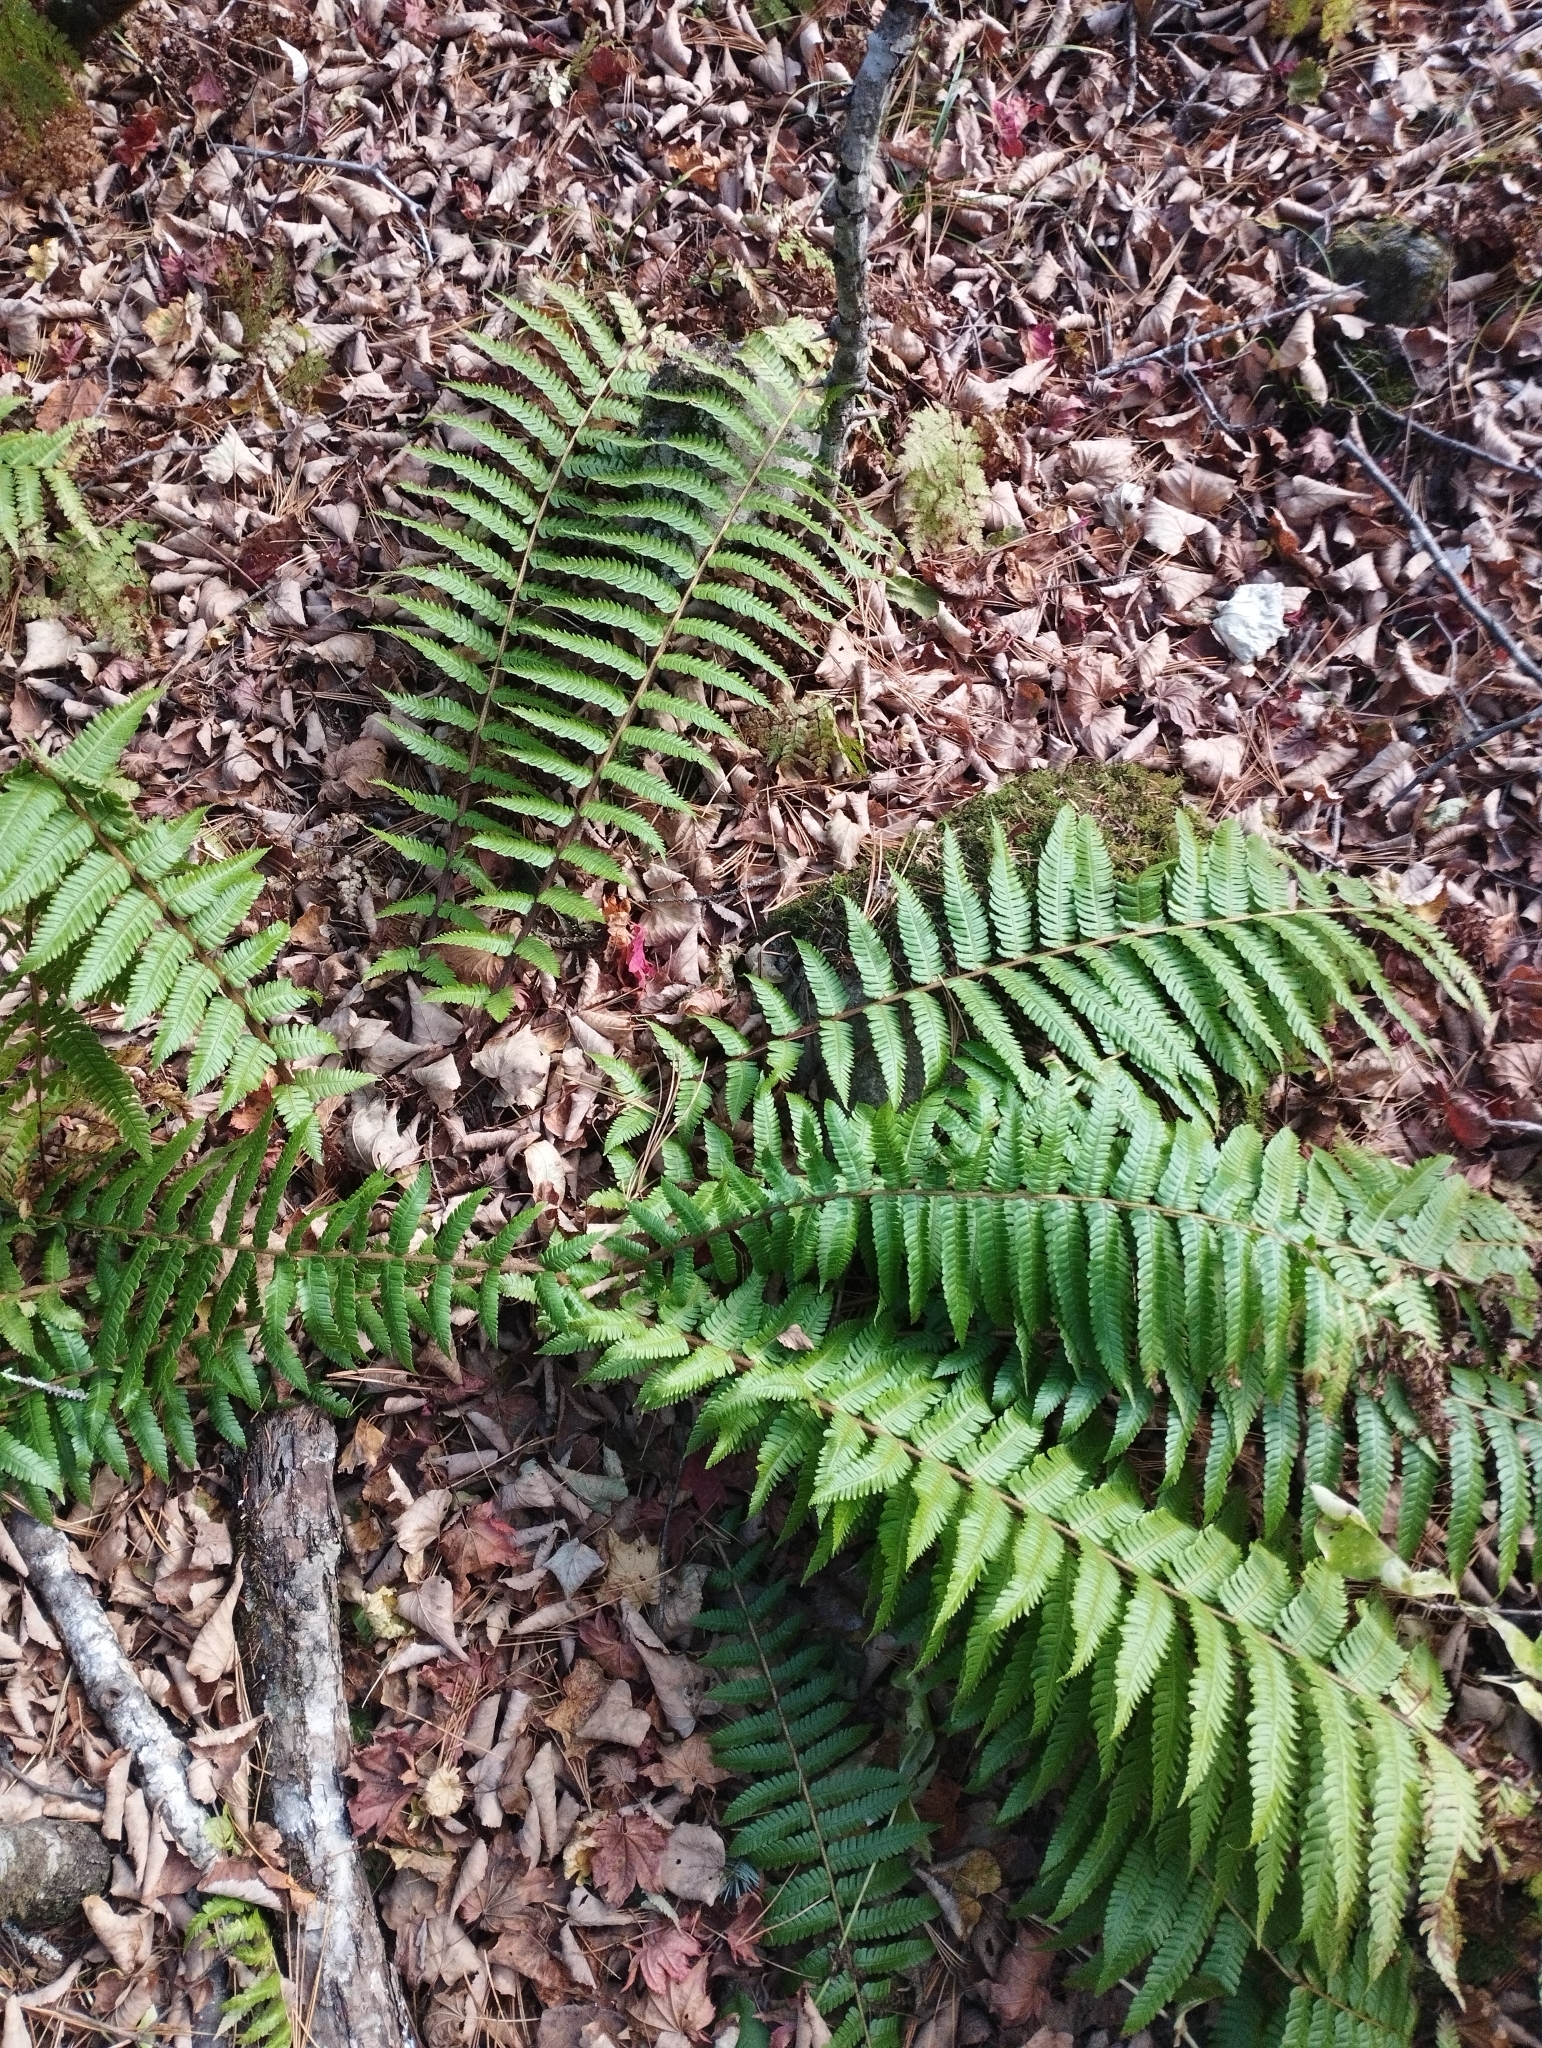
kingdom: Plantae
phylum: Tracheophyta
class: Polypodiopsida
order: Polypodiales
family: Dryopteridaceae
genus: Dryopteris
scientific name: Dryopteris crassirhizoma
